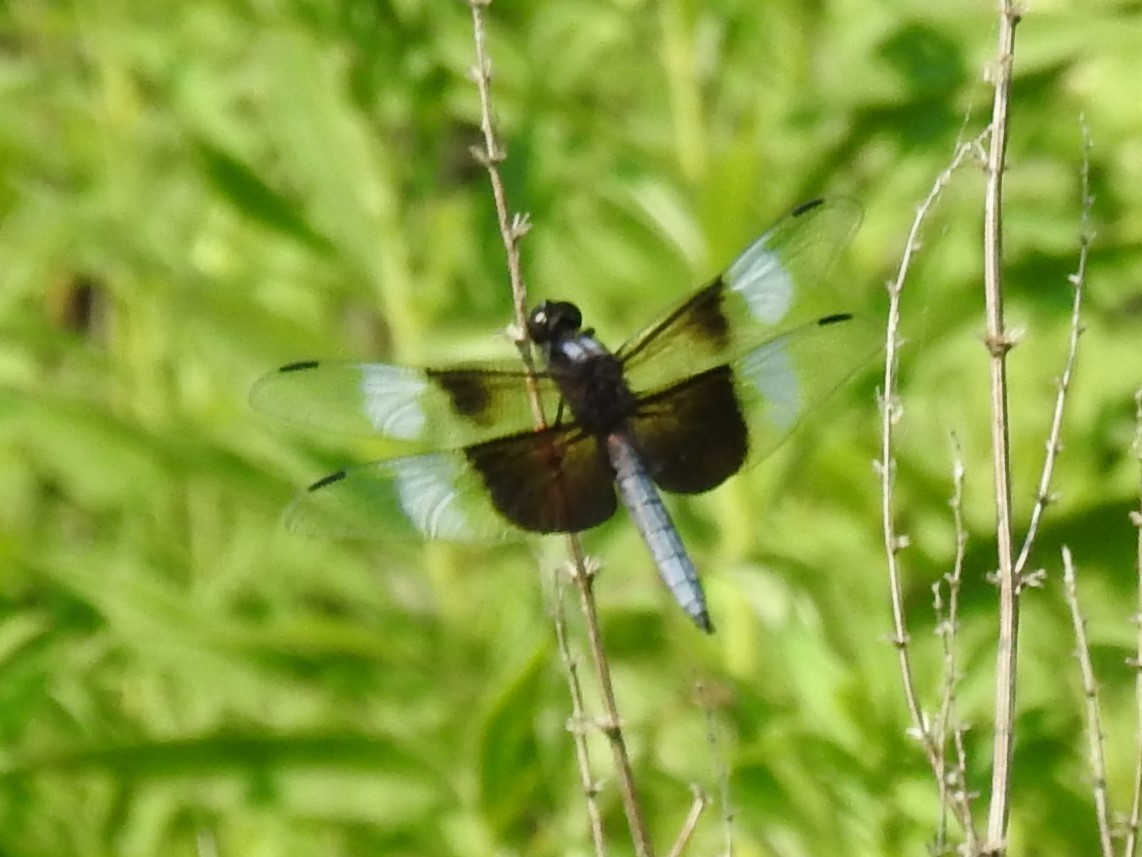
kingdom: Animalia
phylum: Arthropoda
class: Insecta
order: Odonata
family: Libellulidae
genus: Libellula
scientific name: Libellula luctuosa
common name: Widow skimmer
